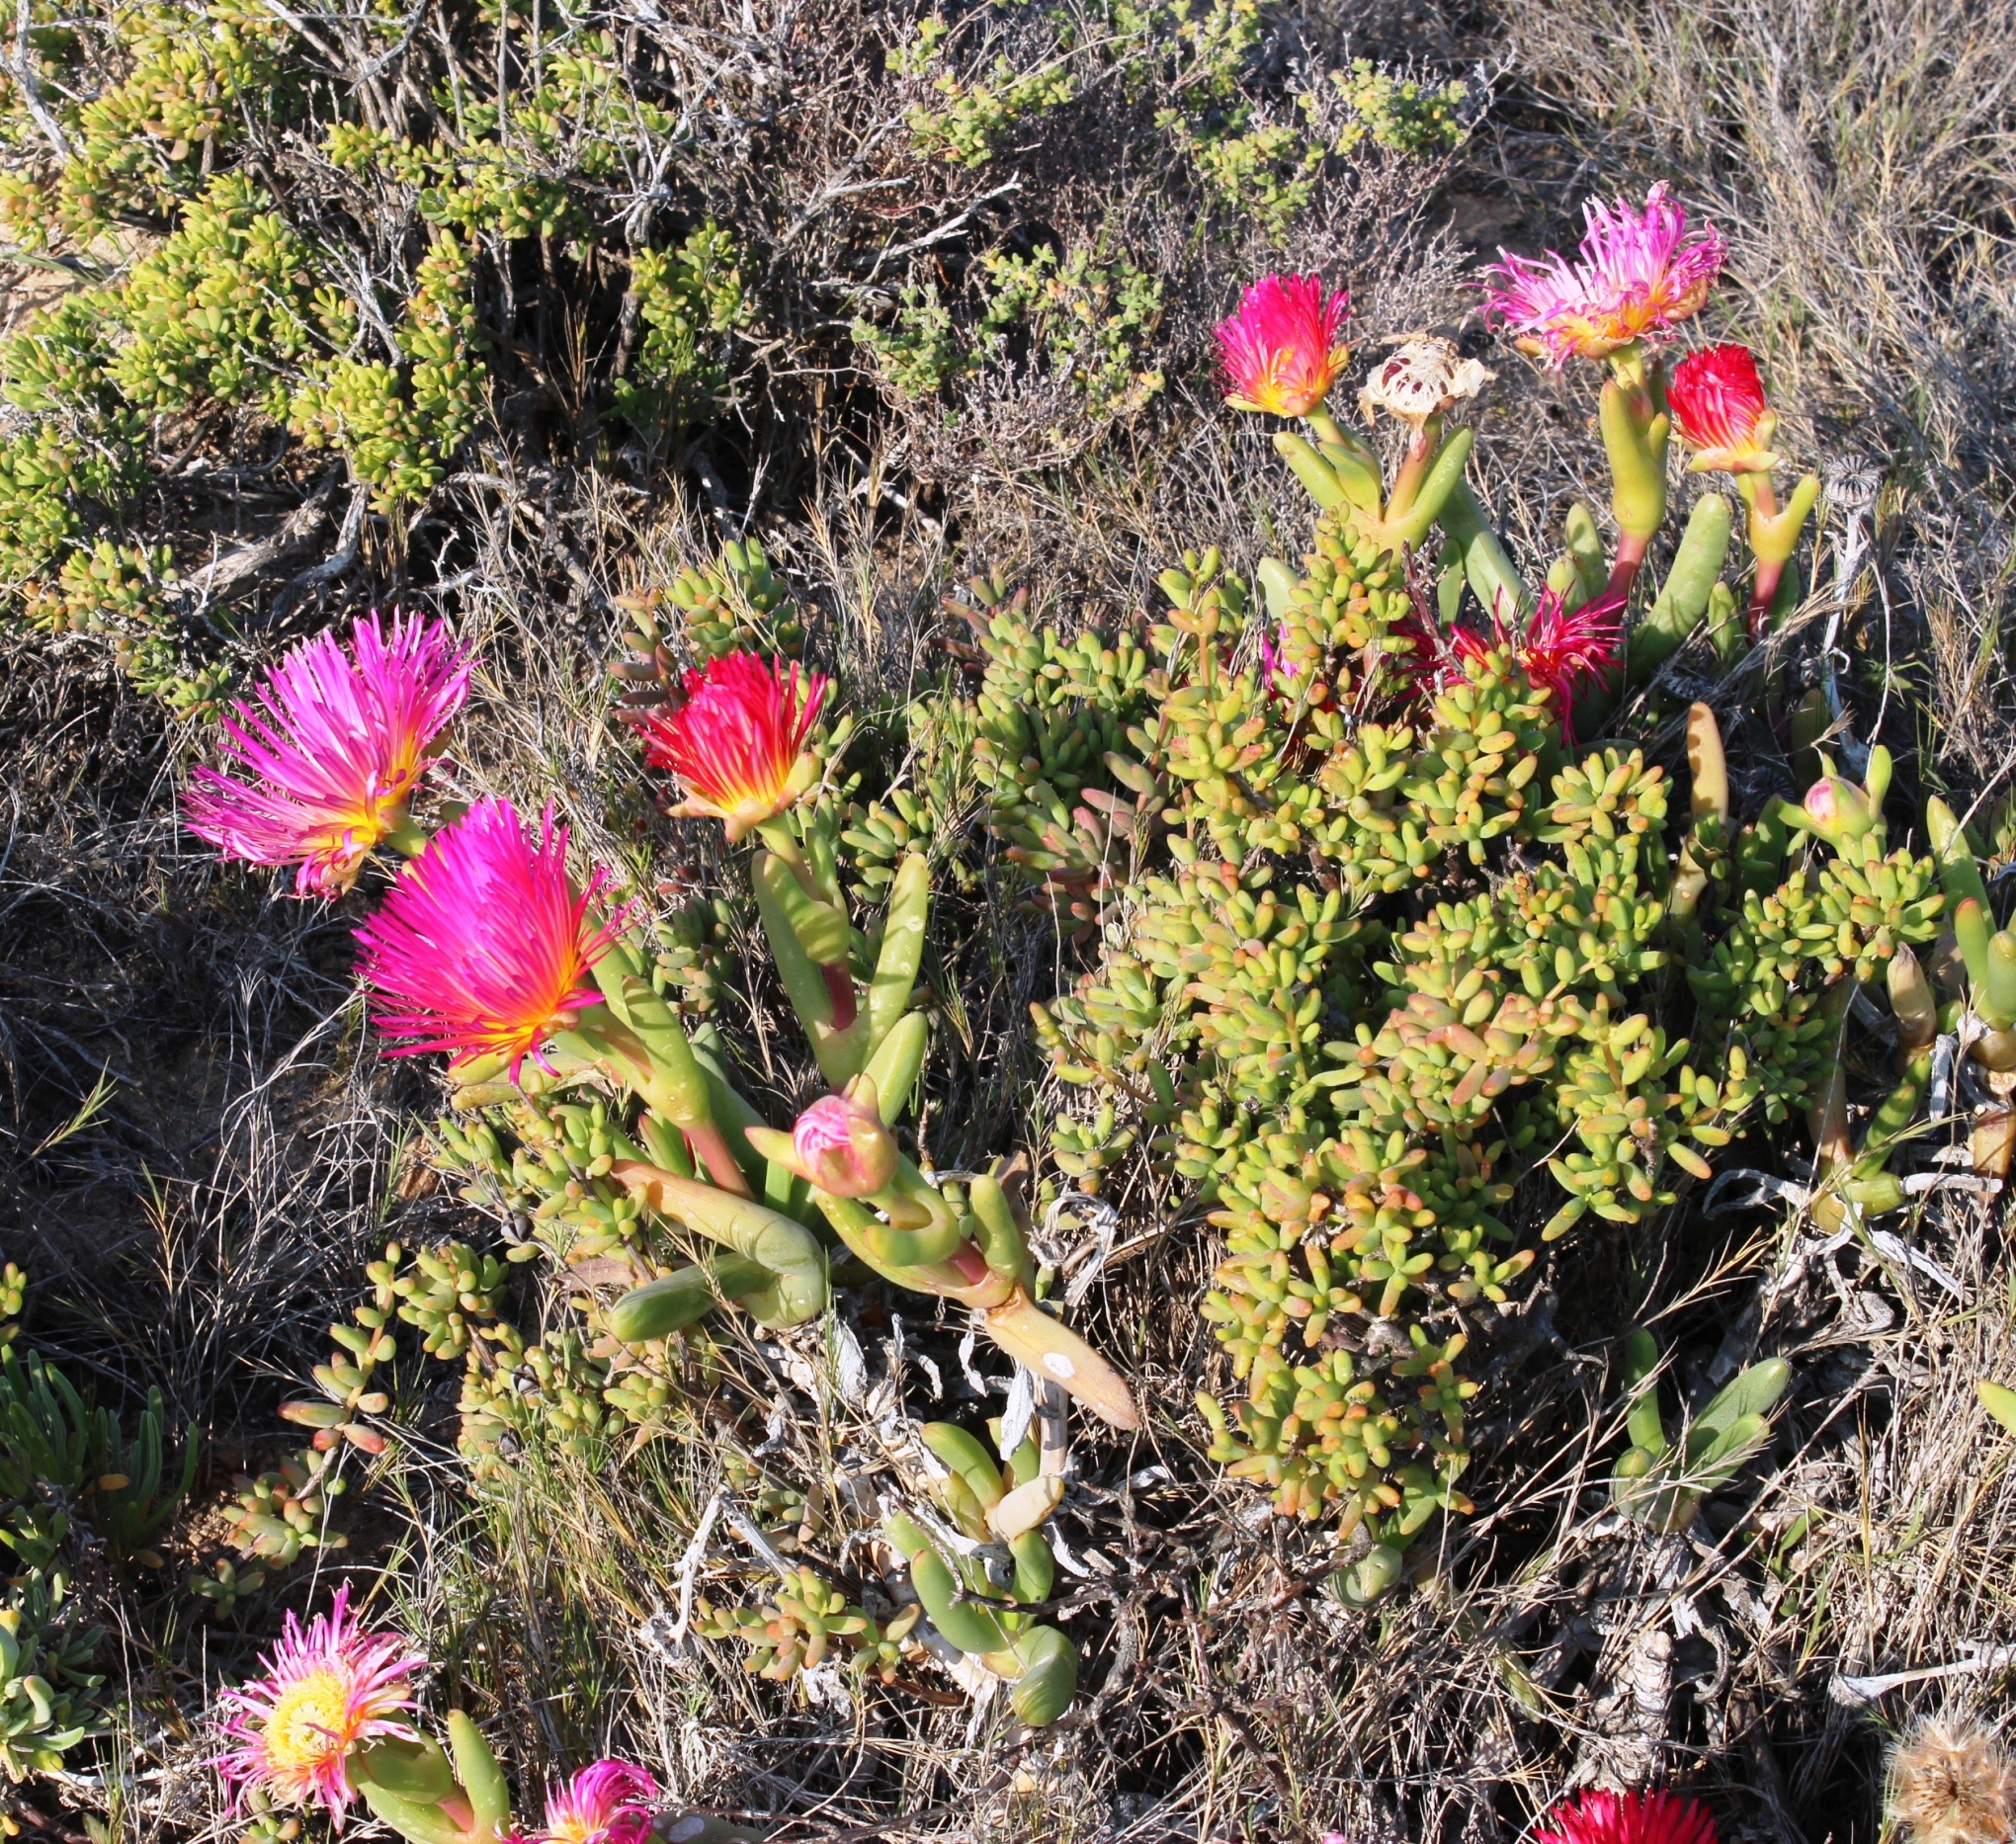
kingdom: Plantae
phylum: Tracheophyta
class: Magnoliopsida
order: Caryophyllales
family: Aizoaceae
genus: Jordaaniella
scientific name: Jordaaniella spongiosa
